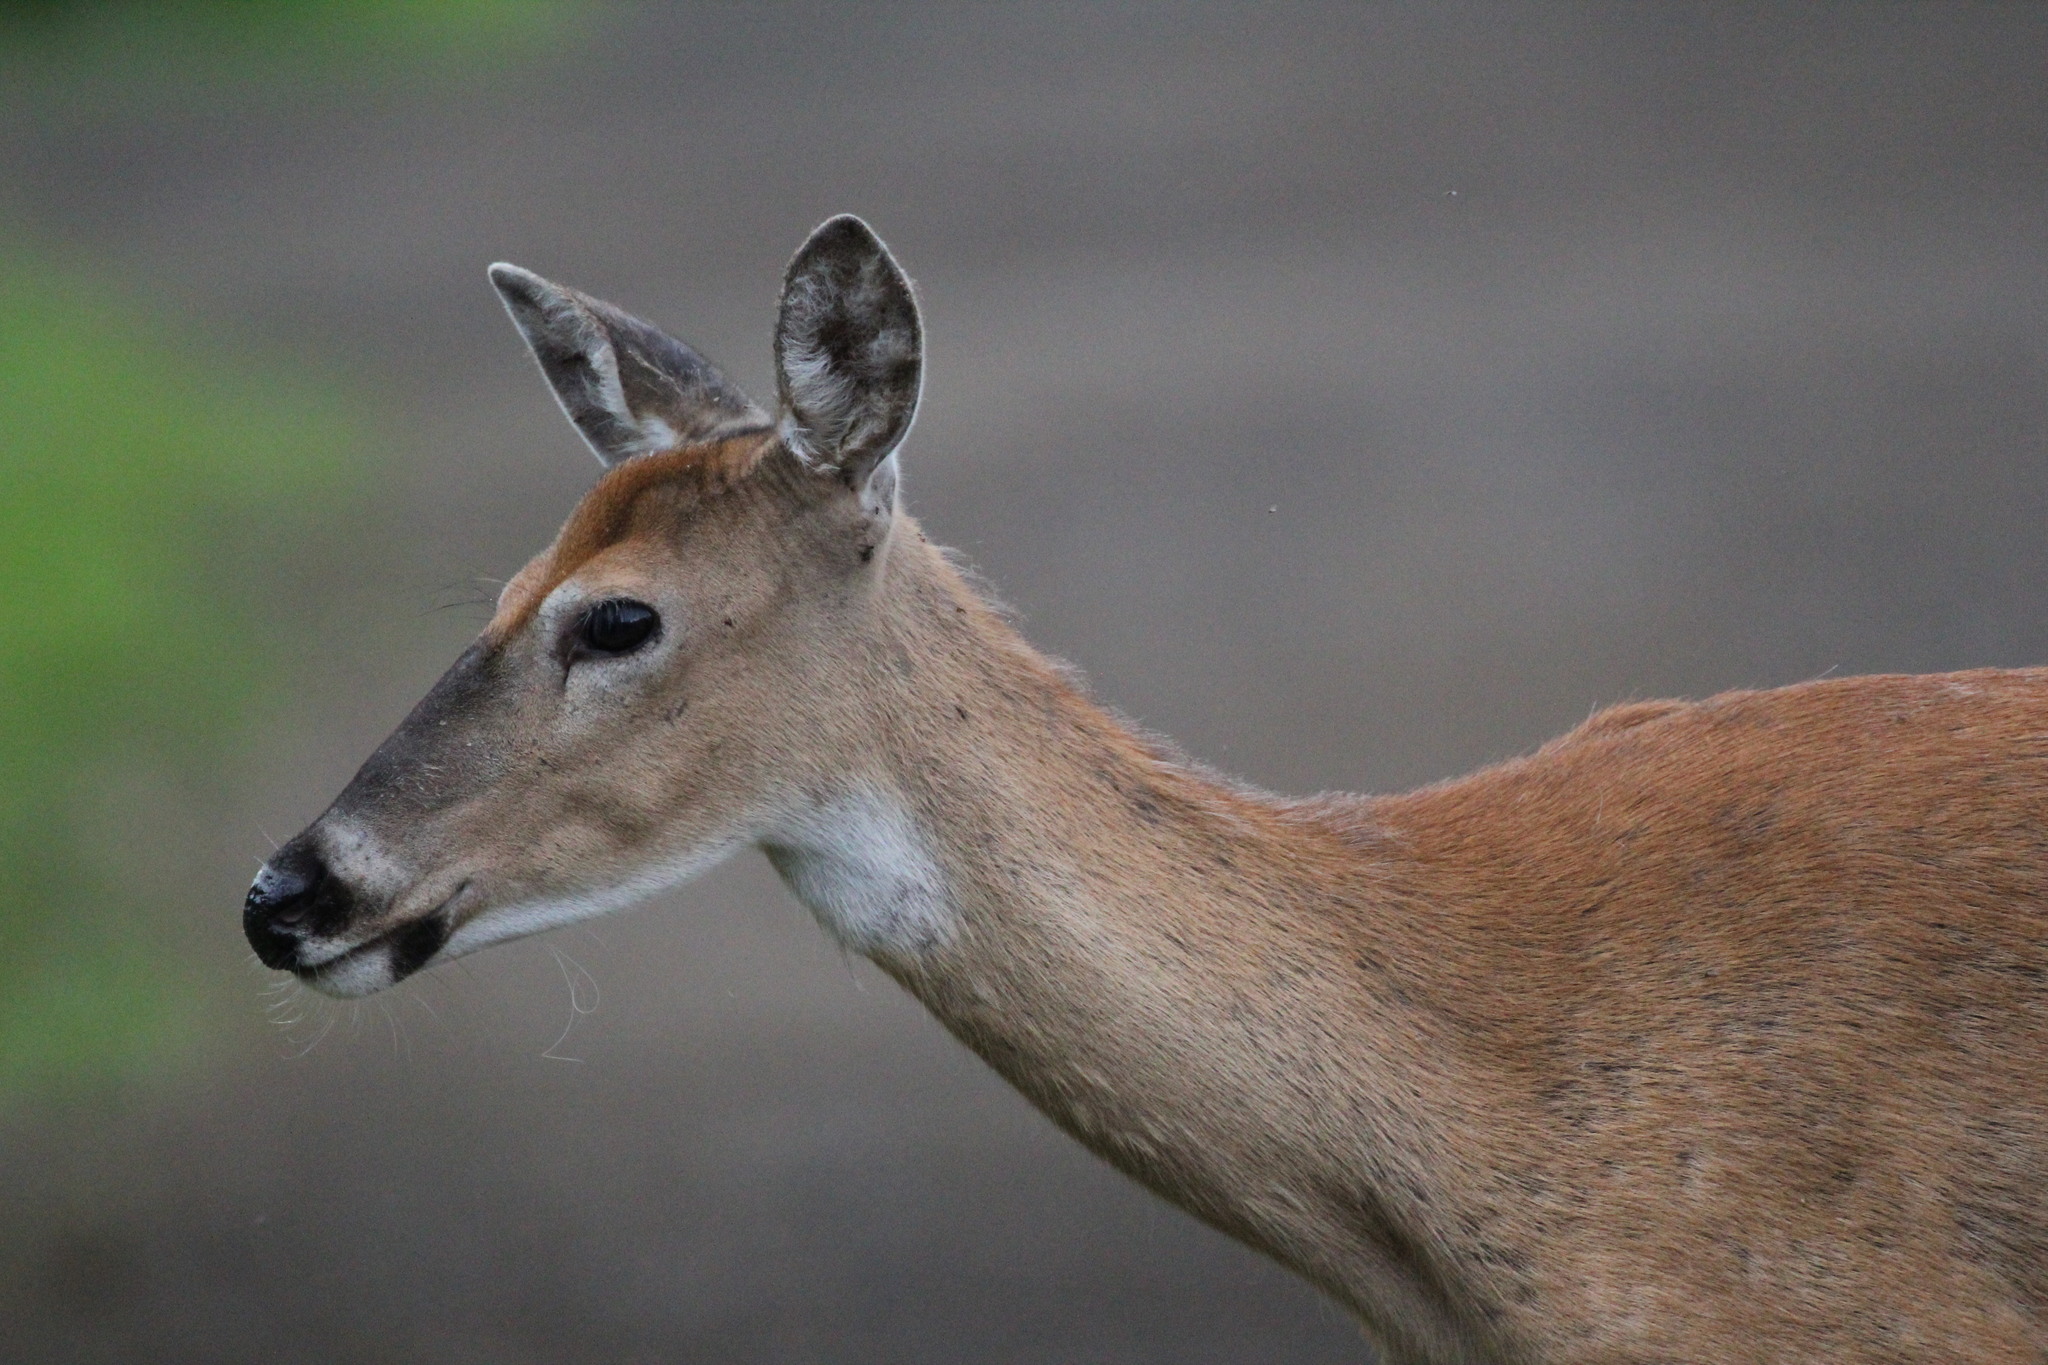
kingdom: Animalia
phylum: Chordata
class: Mammalia
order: Artiodactyla
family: Cervidae
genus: Odocoileus
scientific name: Odocoileus virginianus
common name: White-tailed deer
